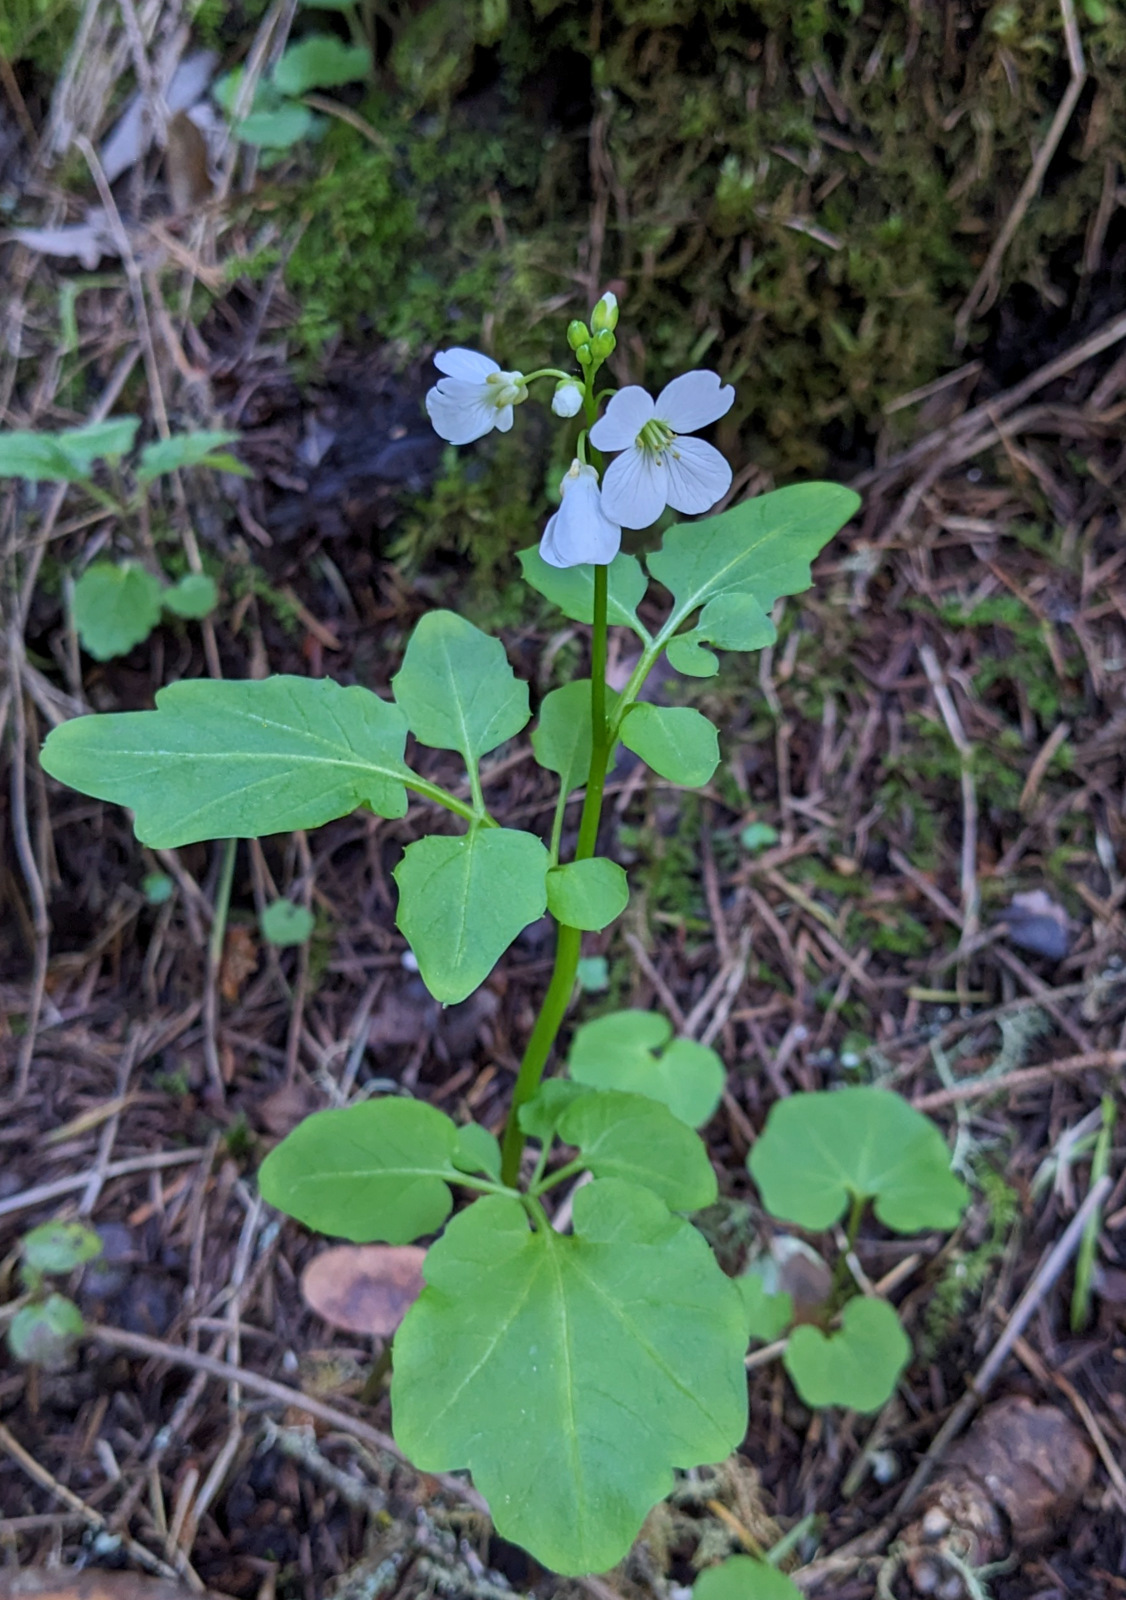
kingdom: Plantae
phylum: Tracheophyta
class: Magnoliopsida
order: Brassicales
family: Brassicaceae
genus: Cardamine
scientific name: Cardamine californica
